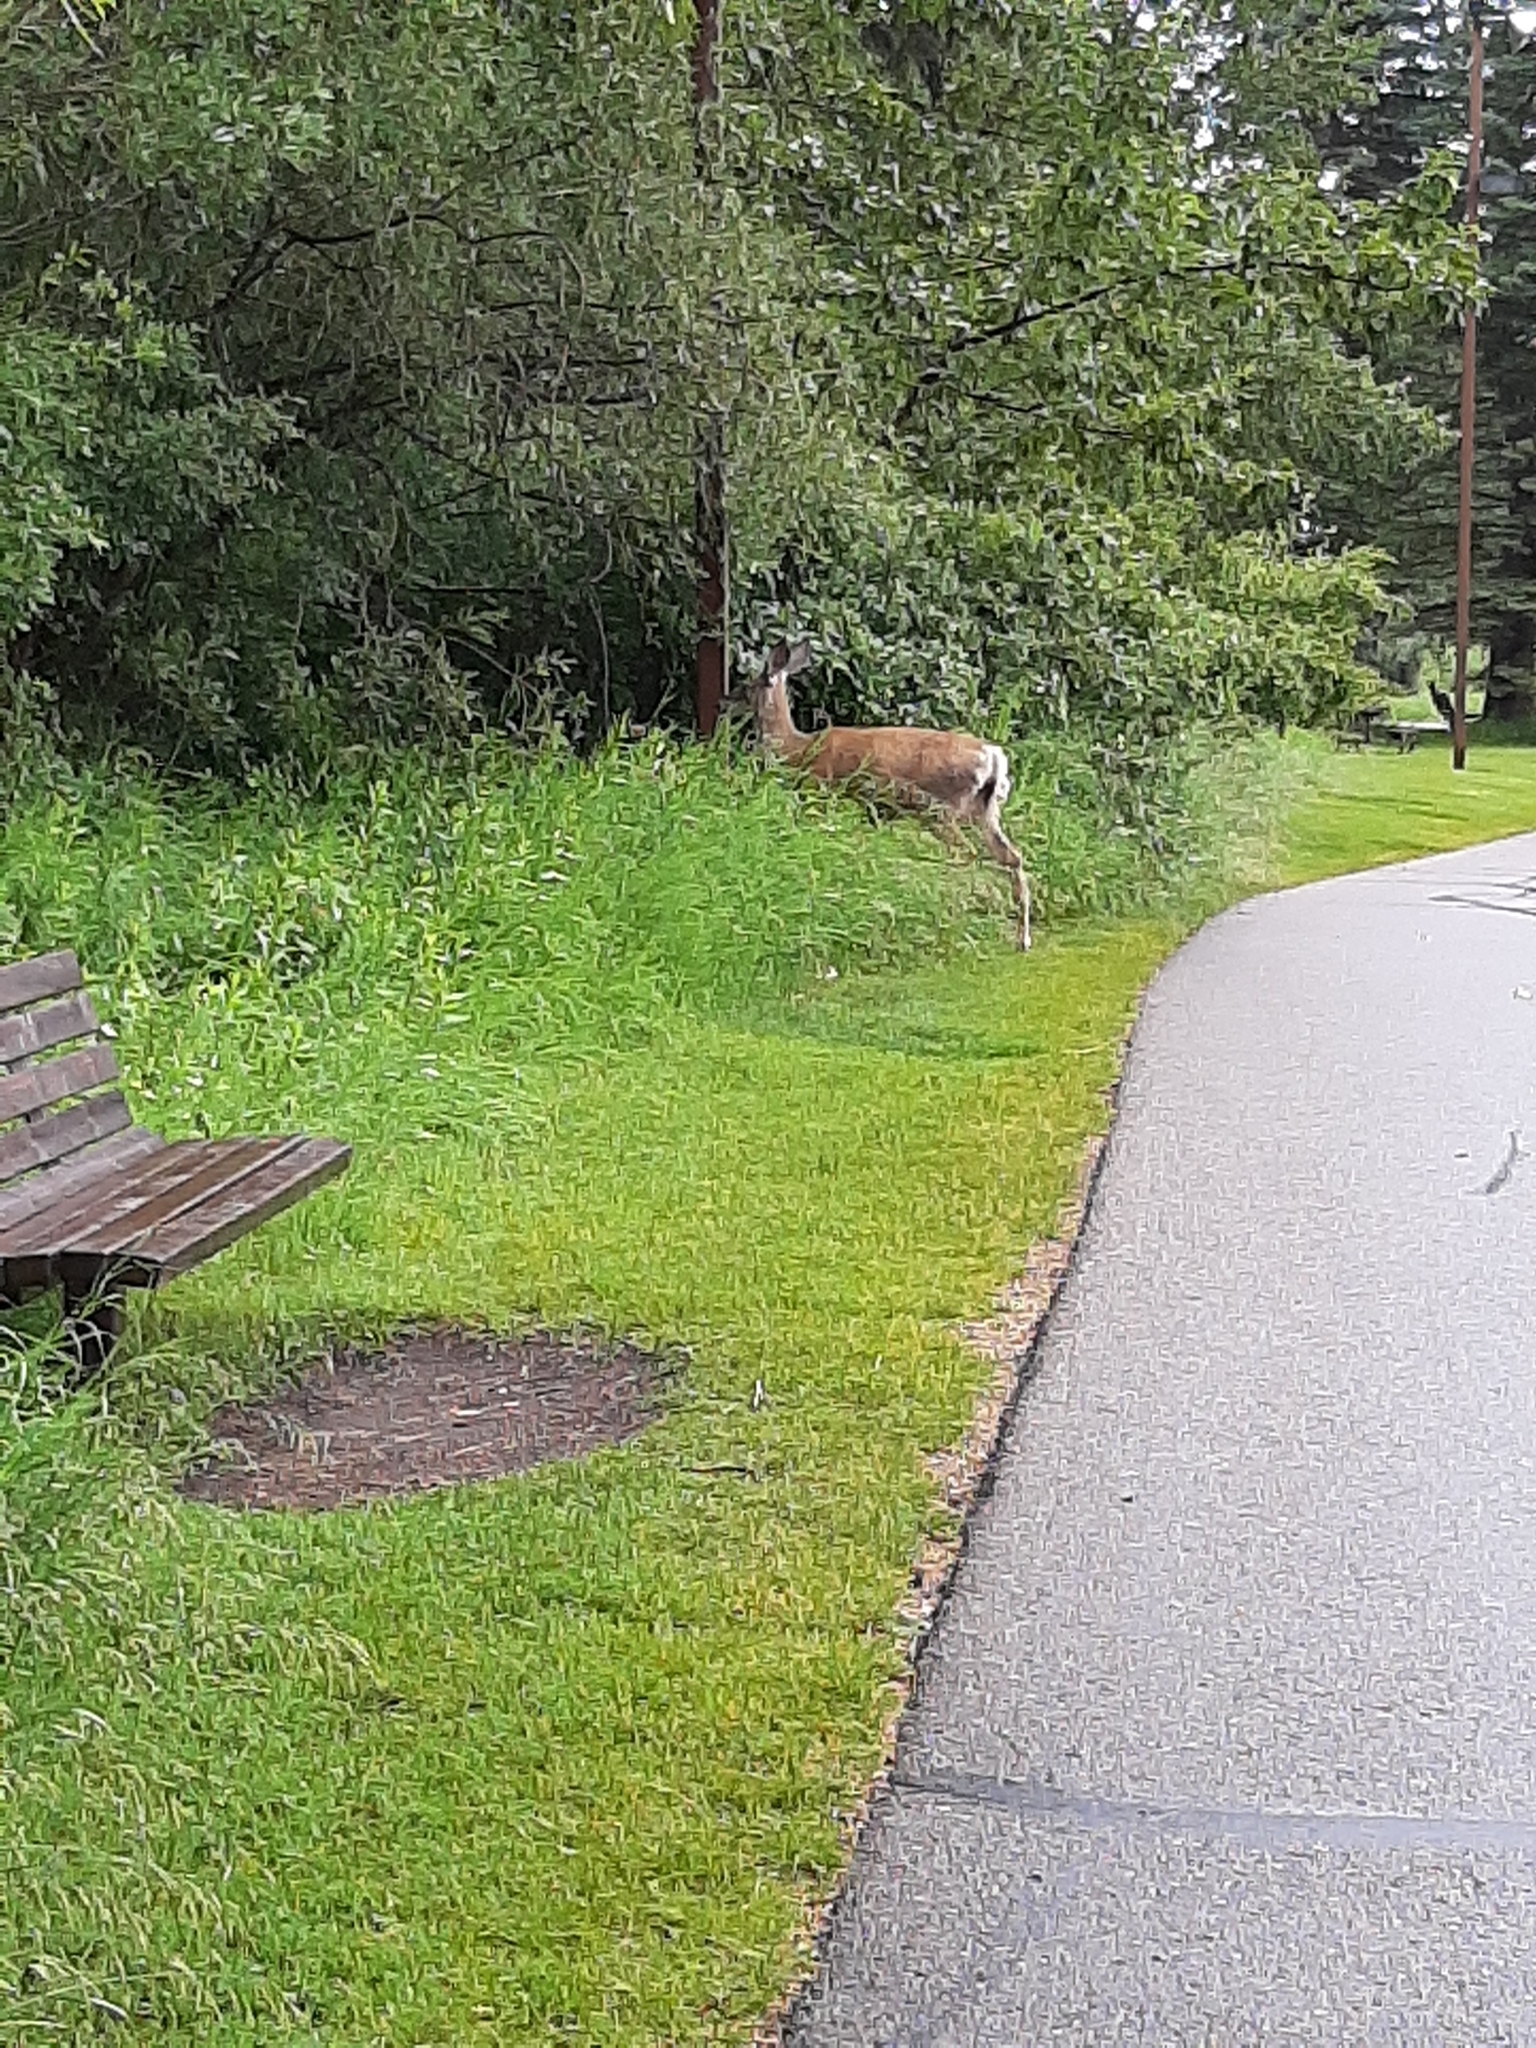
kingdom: Animalia
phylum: Chordata
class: Mammalia
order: Artiodactyla
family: Cervidae
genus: Odocoileus
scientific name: Odocoileus hemionus
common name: Mule deer
